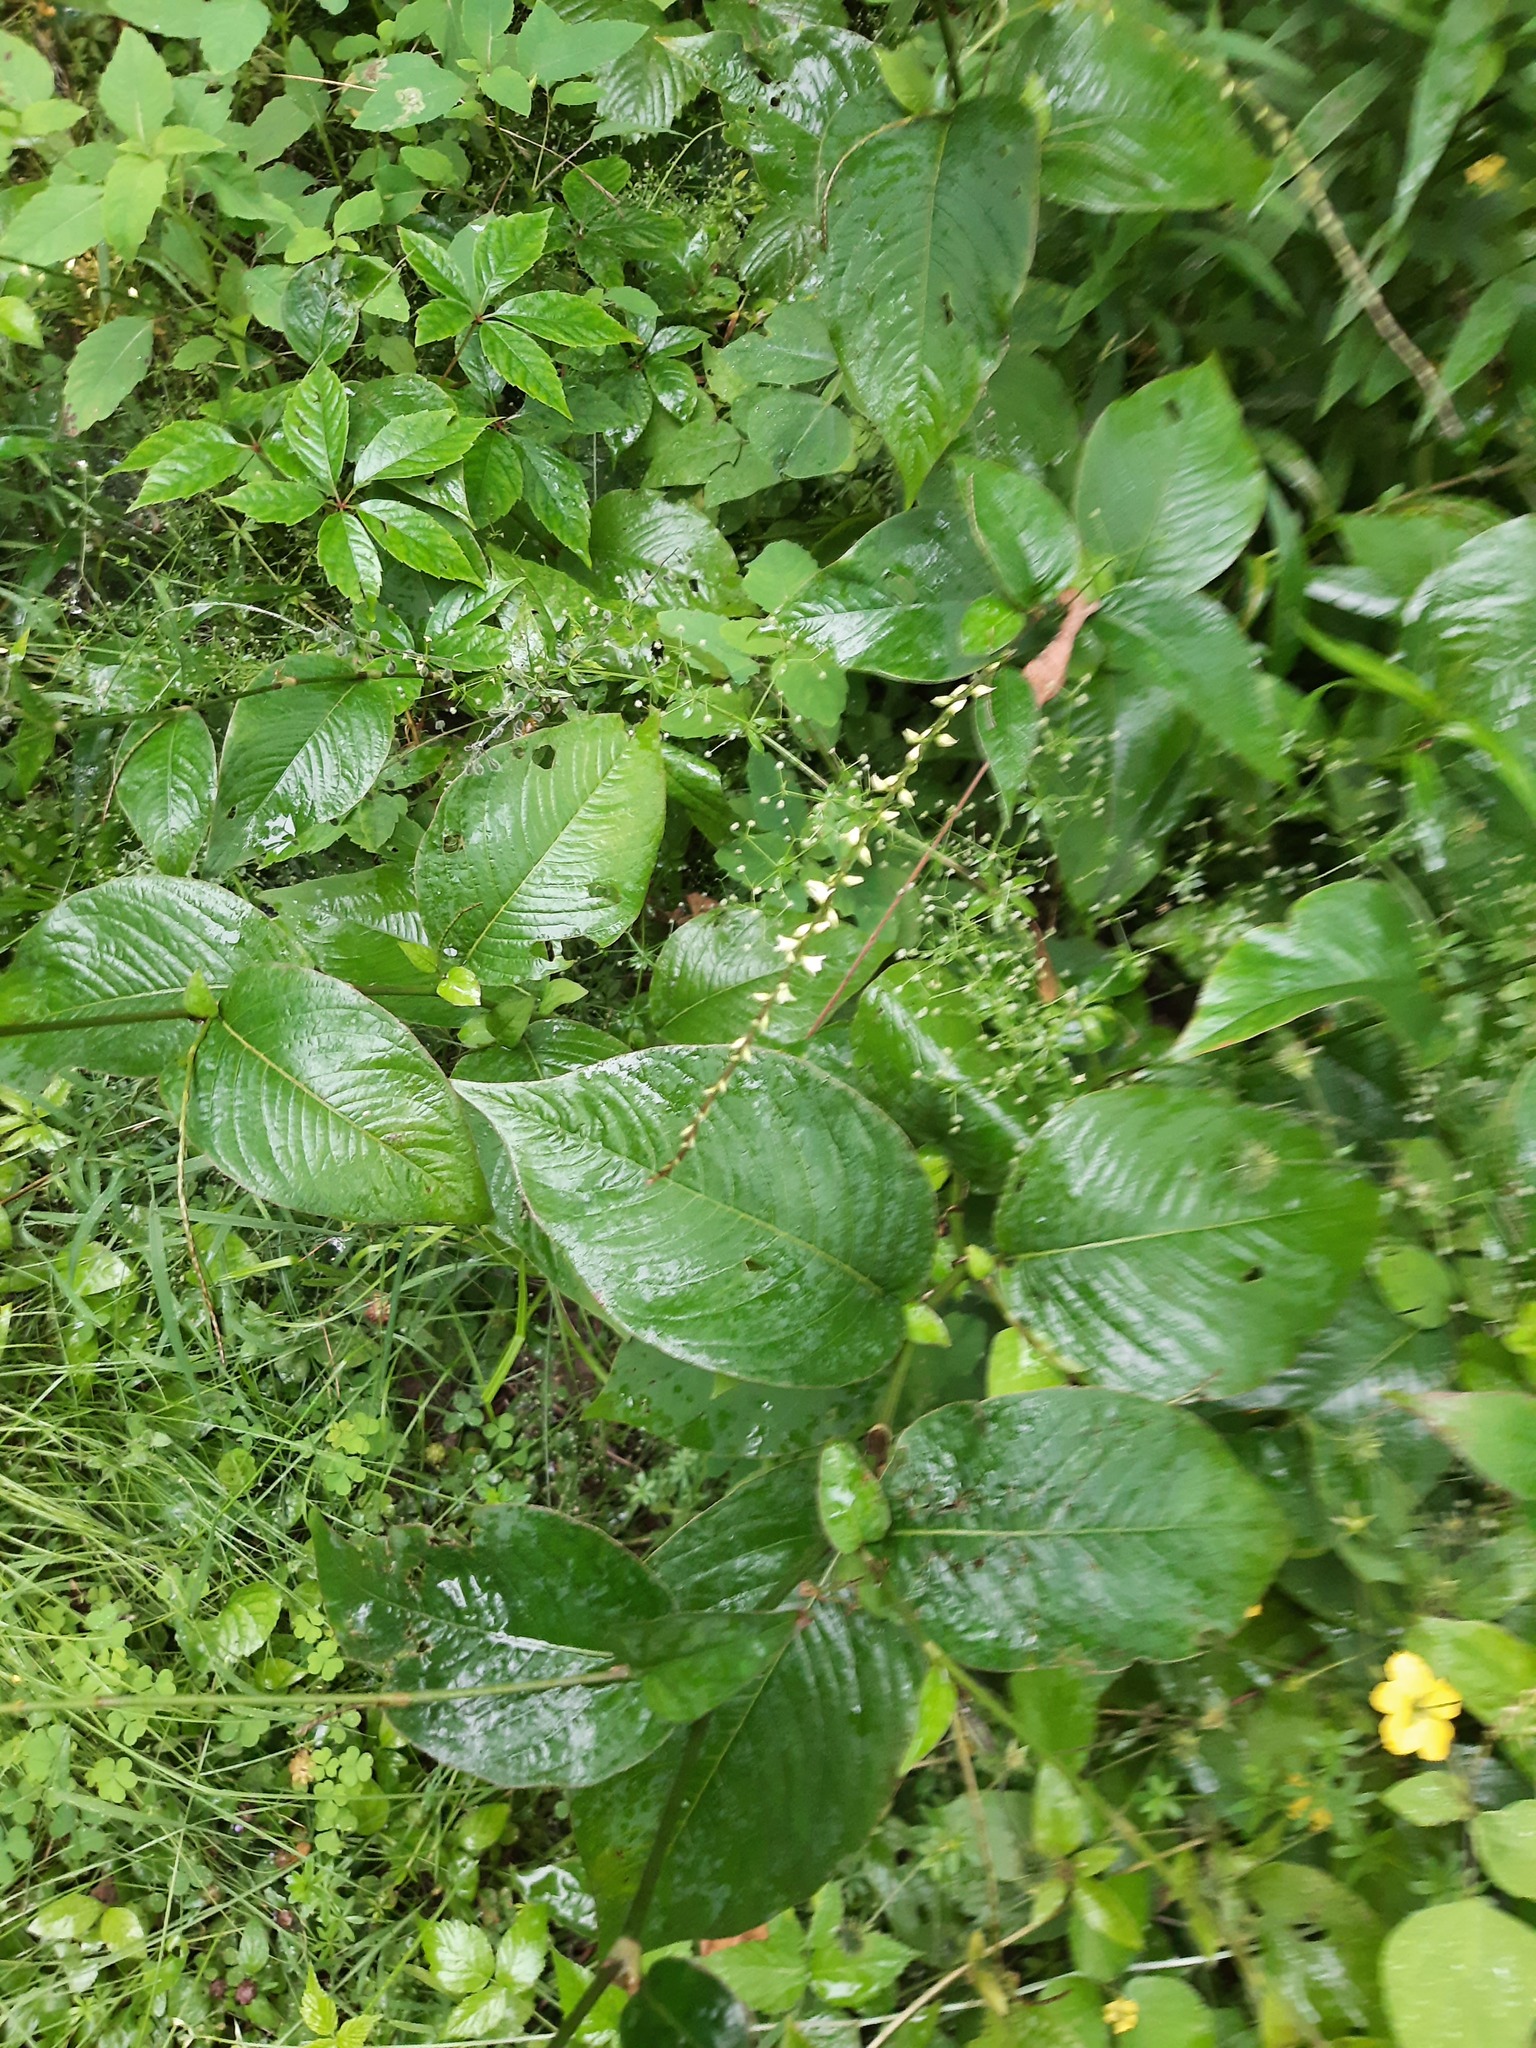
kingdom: Plantae
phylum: Tracheophyta
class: Magnoliopsida
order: Caryophyllales
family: Polygonaceae
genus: Persicaria
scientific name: Persicaria virginiana
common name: Jumpseed
